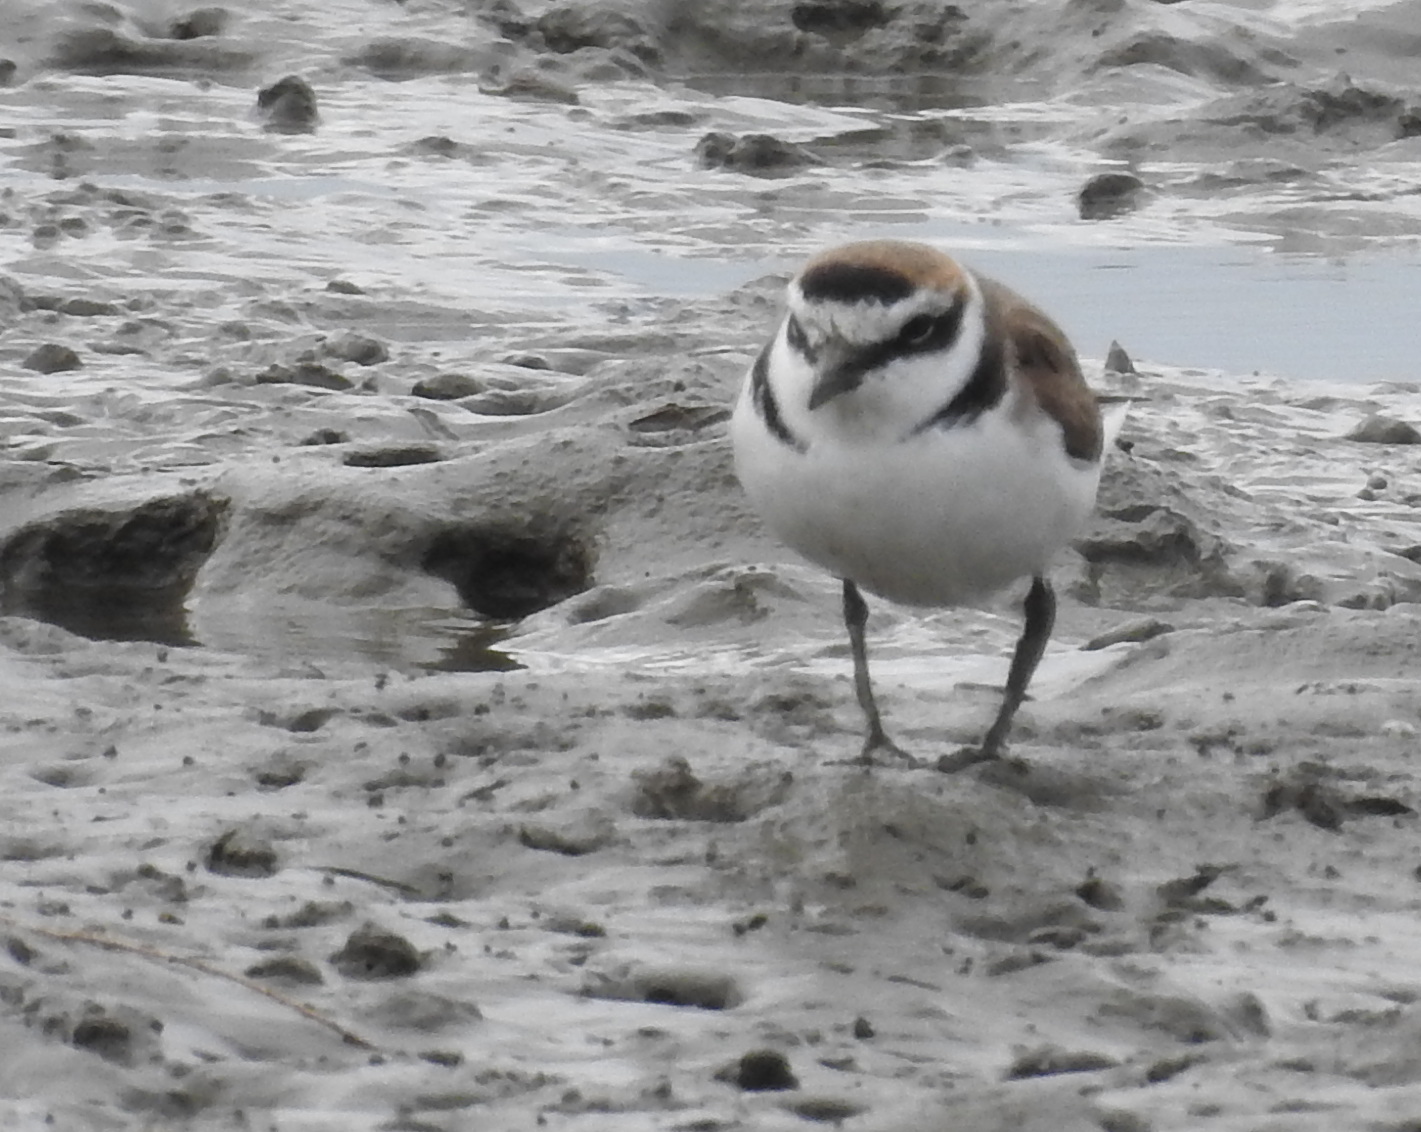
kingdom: Animalia
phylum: Chordata
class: Aves
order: Charadriiformes
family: Charadriidae
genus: Charadrius
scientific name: Charadrius alexandrinus
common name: Kentish plover
